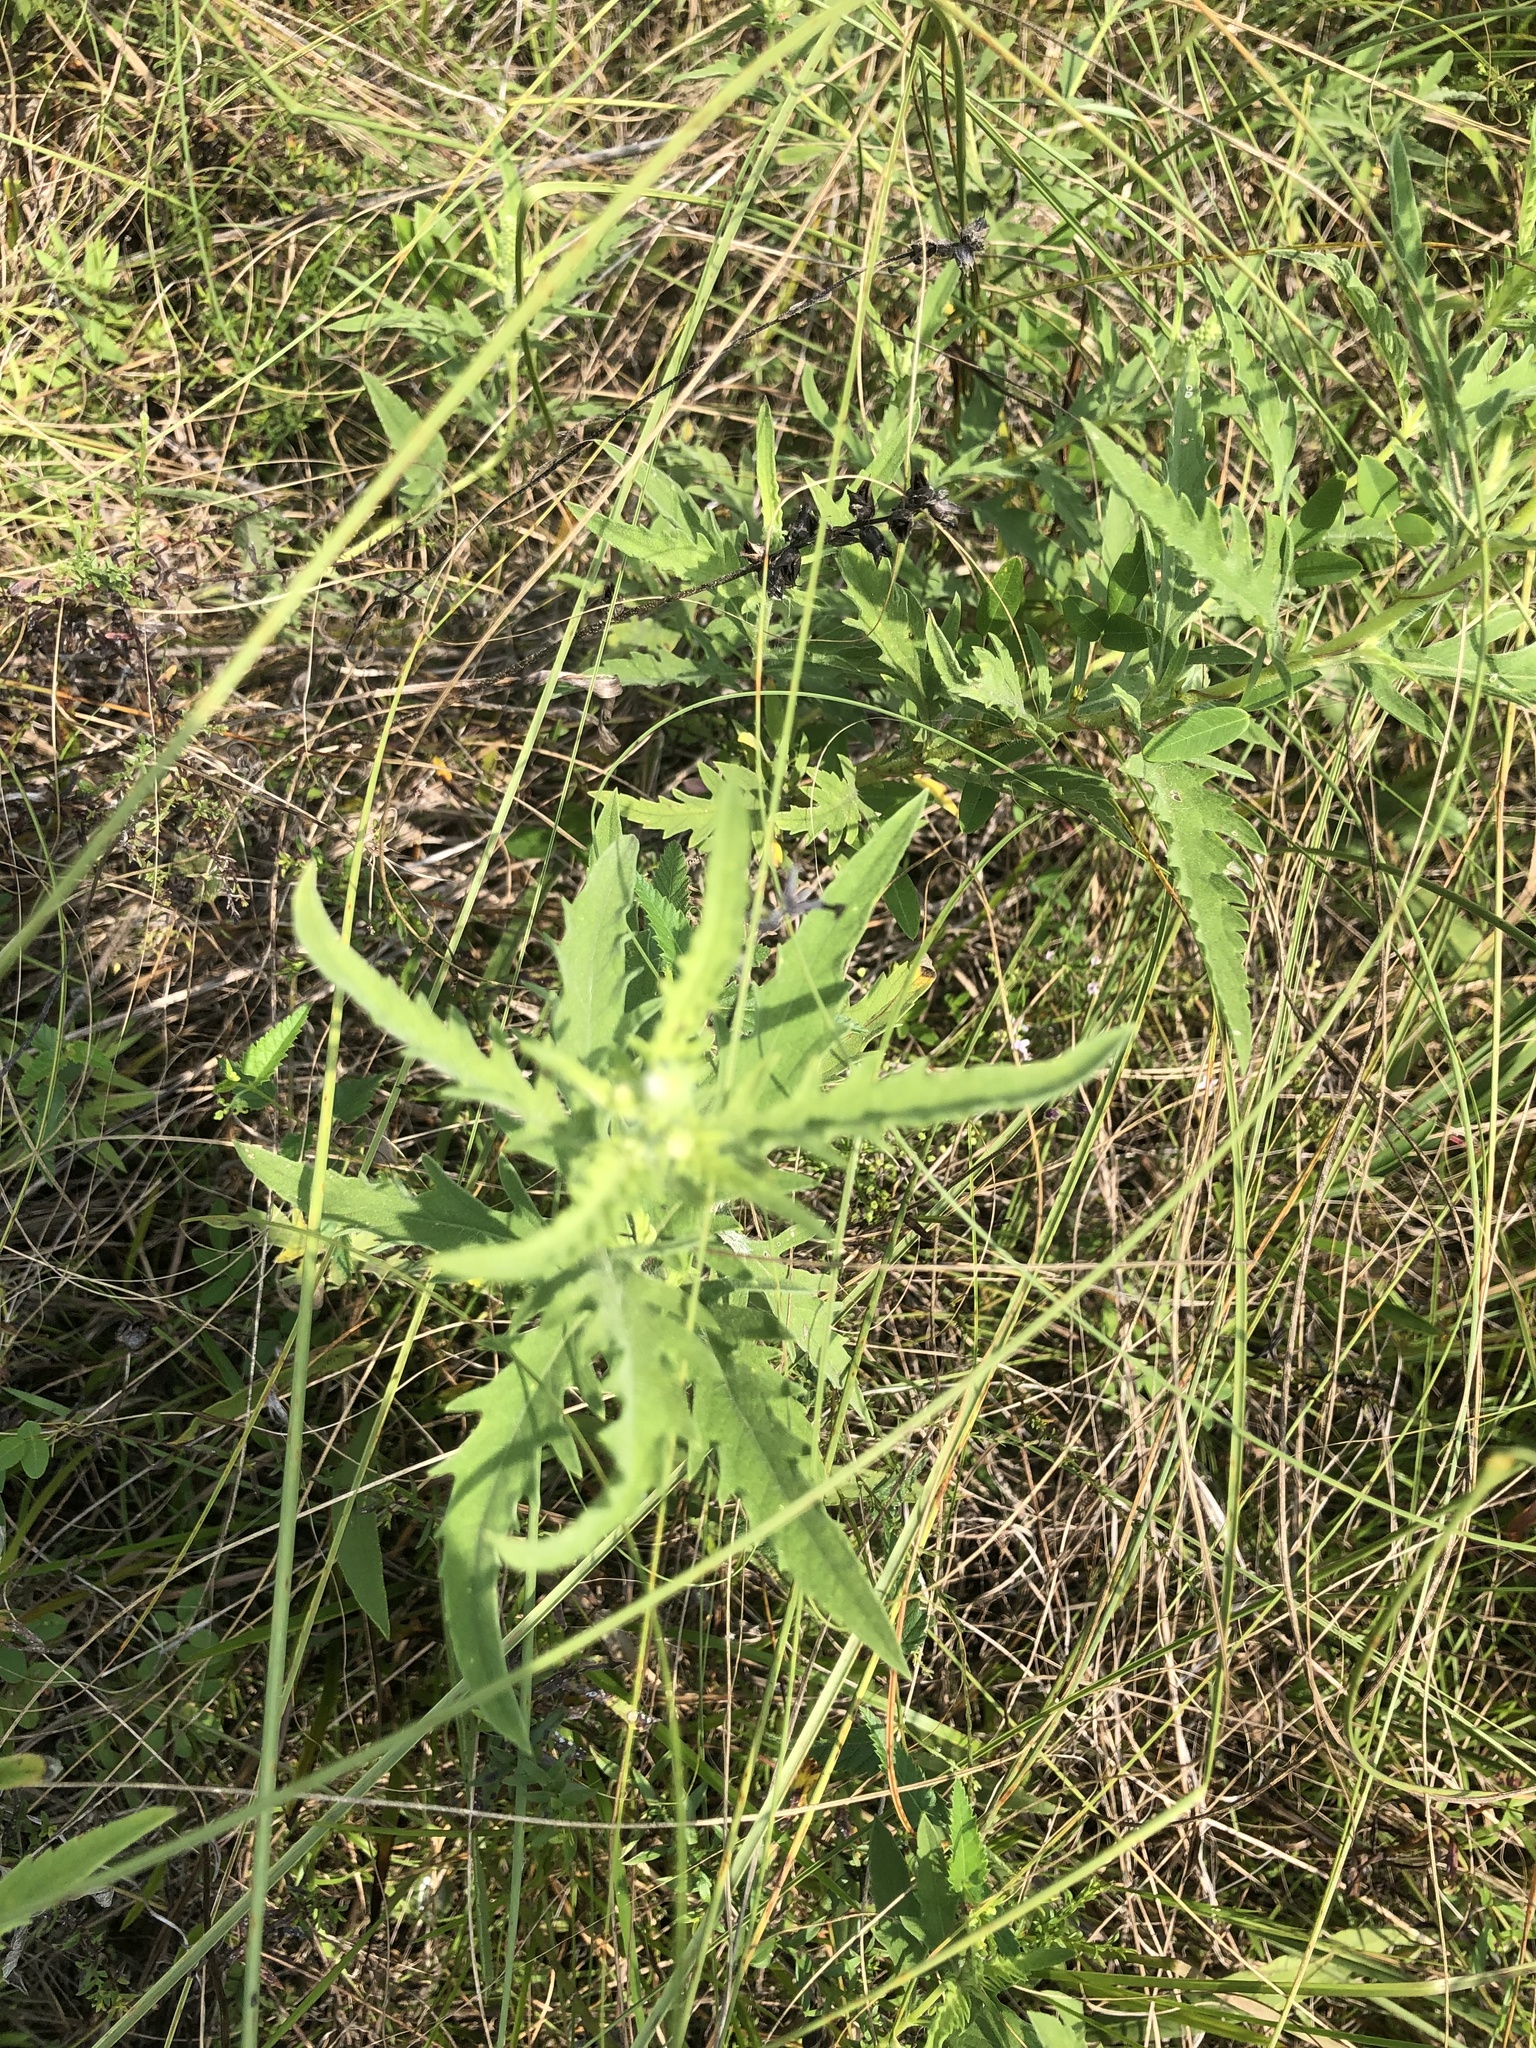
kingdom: Plantae
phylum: Tracheophyta
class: Magnoliopsida
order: Asterales
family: Asteraceae
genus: Ambrosia
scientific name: Ambrosia psilostachya
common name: Perennial ragweed
